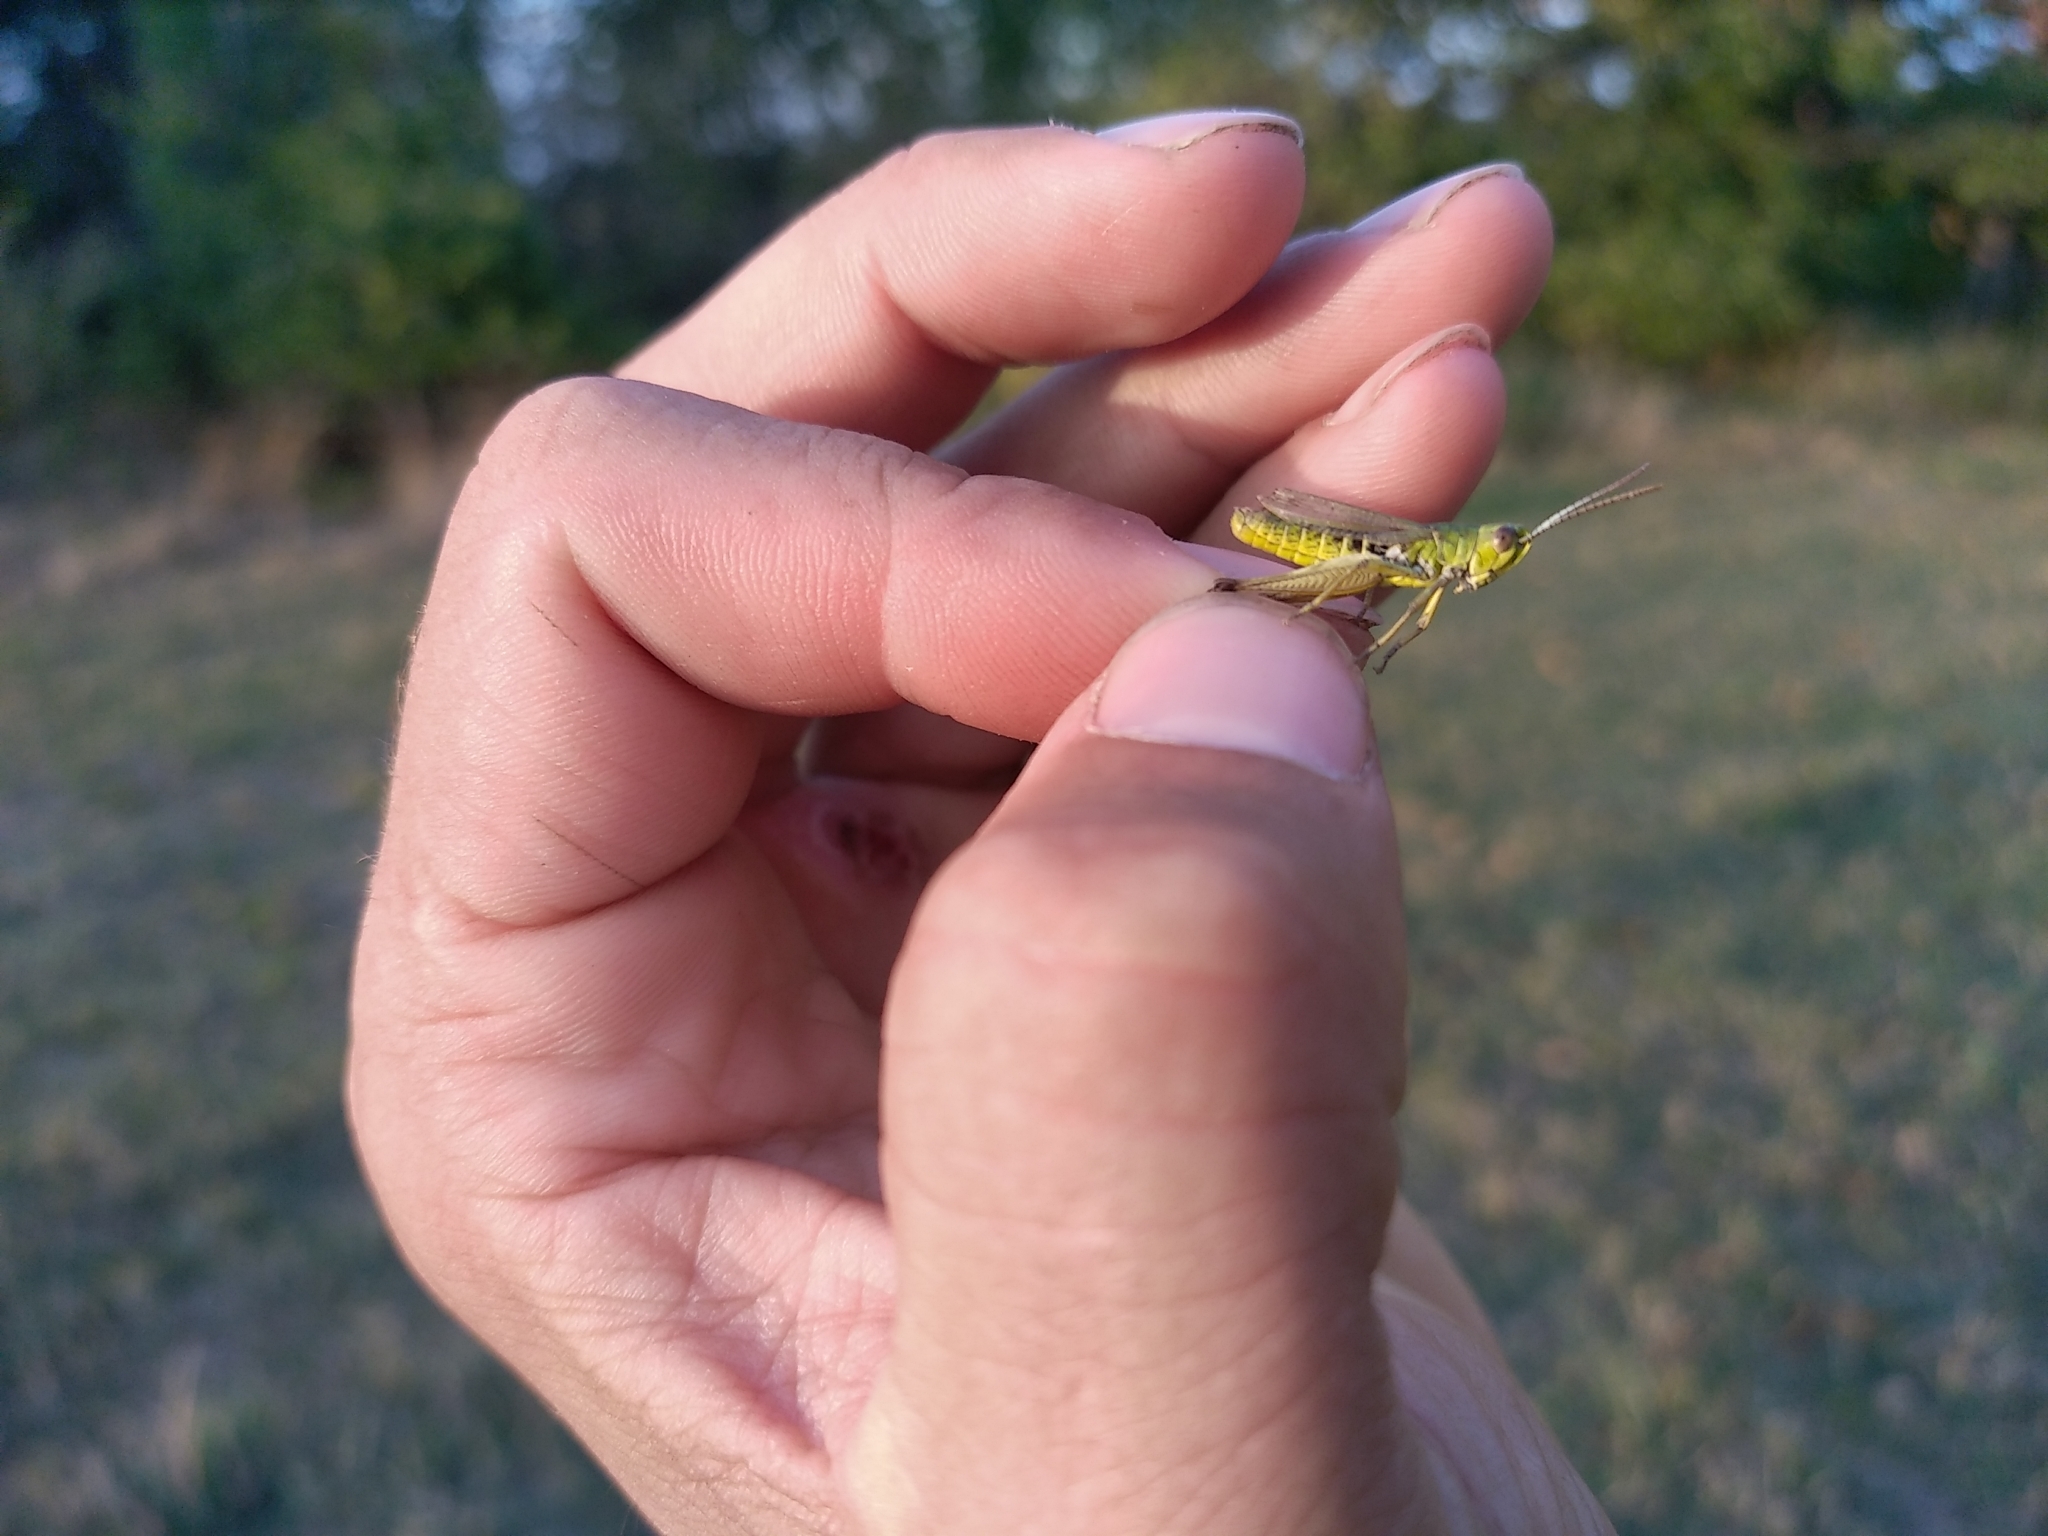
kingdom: Animalia
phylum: Arthropoda
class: Insecta
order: Orthoptera
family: Acrididae
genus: Pseudochorthippus
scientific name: Pseudochorthippus parallelus
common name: Meadow grasshopper
